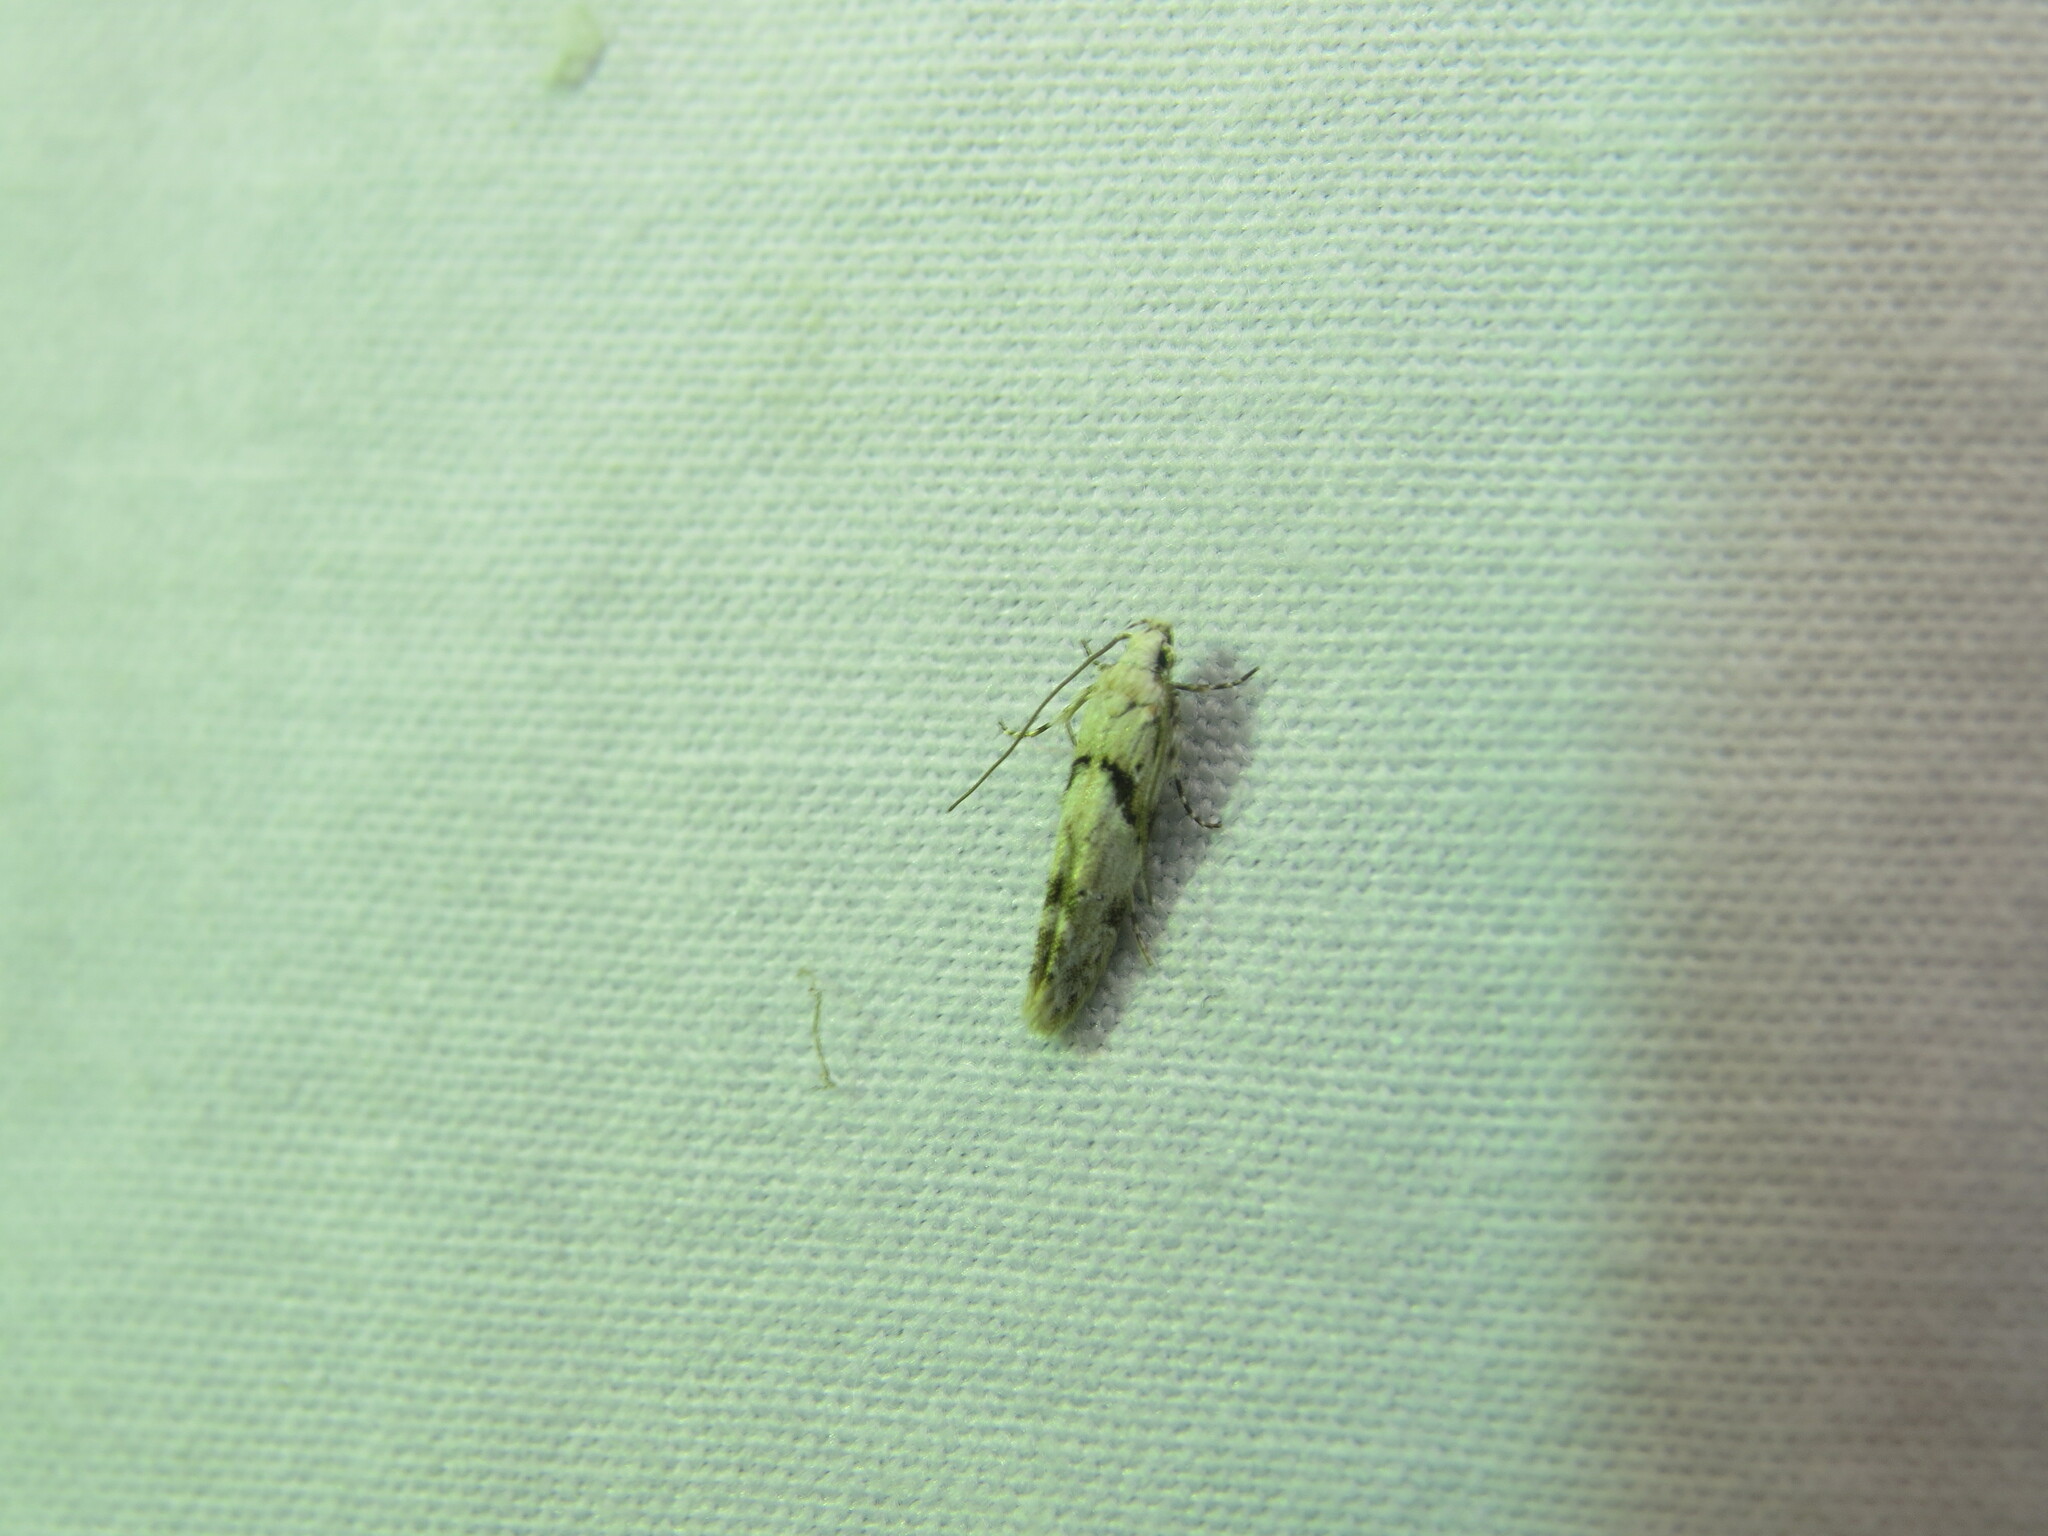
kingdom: Animalia
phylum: Arthropoda
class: Insecta
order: Lepidoptera
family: Gelechiidae
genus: Arogalea
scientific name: Arogalea cristifasciella
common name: White stripe-backed moth
